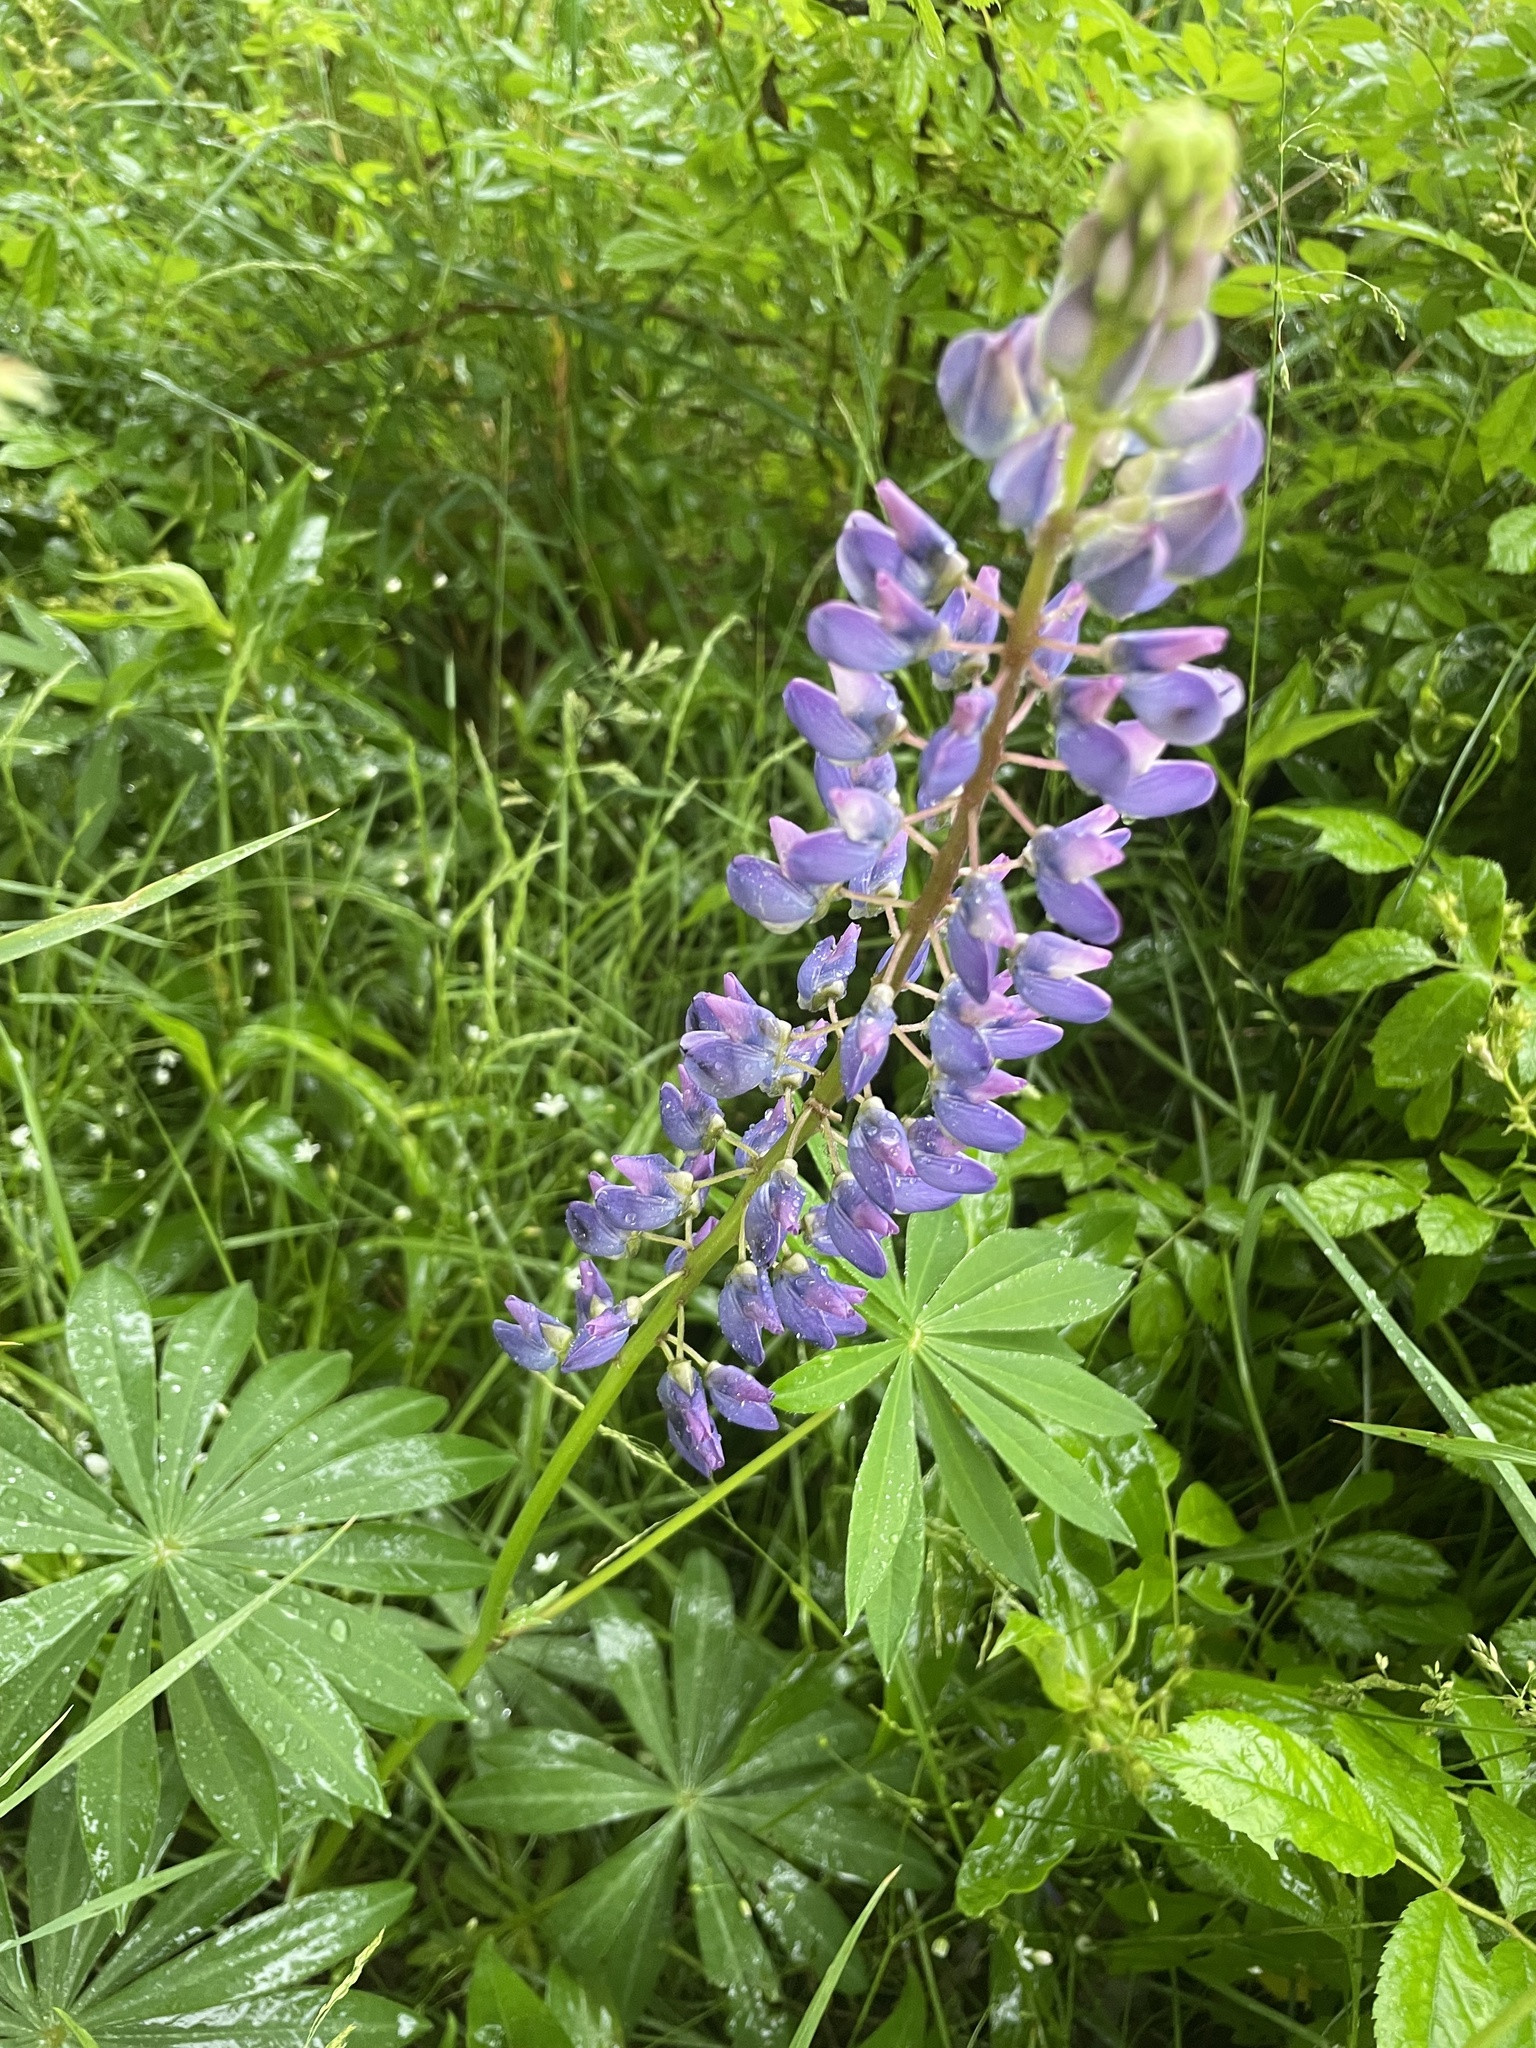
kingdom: Plantae
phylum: Tracheophyta
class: Magnoliopsida
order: Fabales
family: Fabaceae
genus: Lupinus
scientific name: Lupinus polyphyllus
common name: Garden lupin
